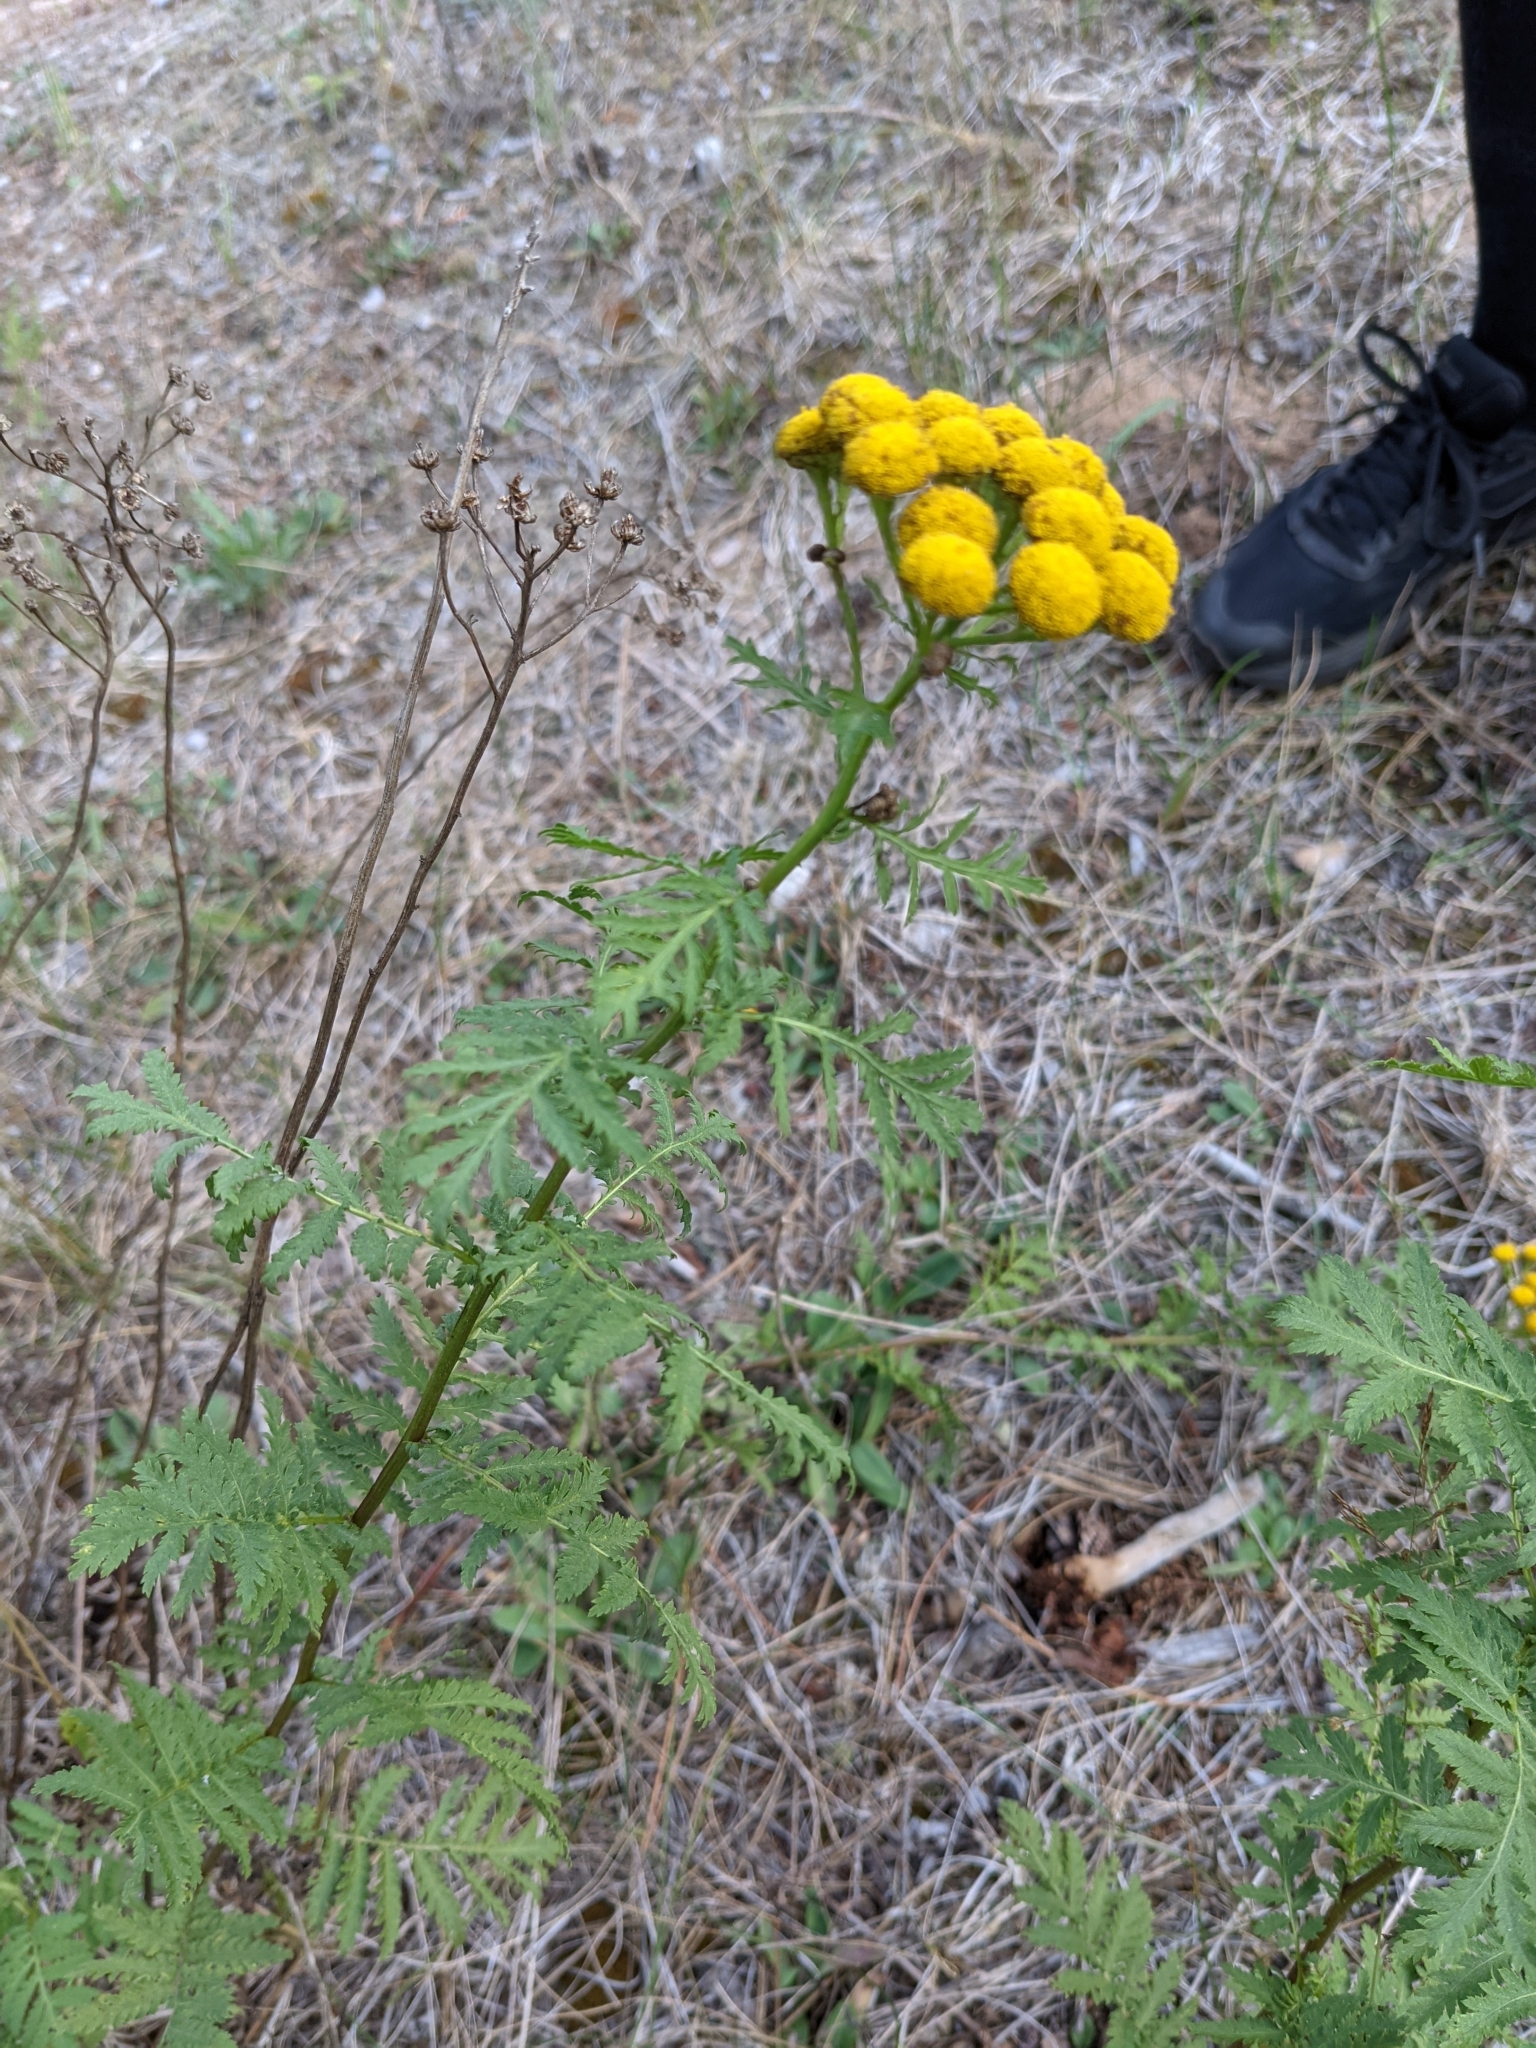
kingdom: Plantae
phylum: Tracheophyta
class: Magnoliopsida
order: Asterales
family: Asteraceae
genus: Tanacetum
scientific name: Tanacetum vulgare
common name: Common tansy
